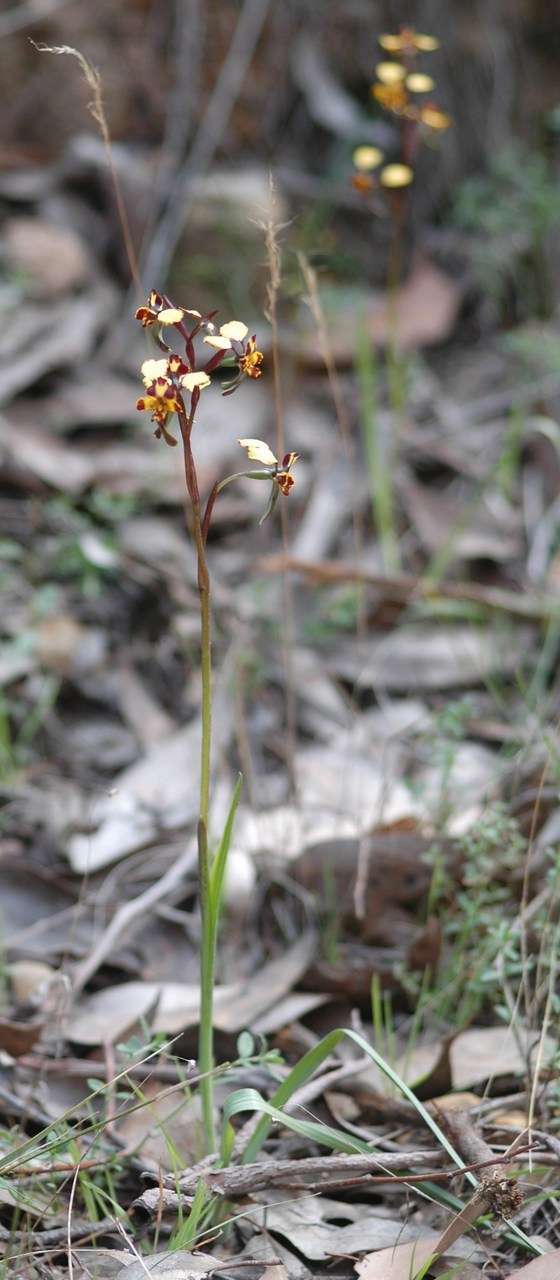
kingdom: Plantae
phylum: Tracheophyta
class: Liliopsida
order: Asparagales
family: Orchidaceae
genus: Diuris
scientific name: Diuris pardina
